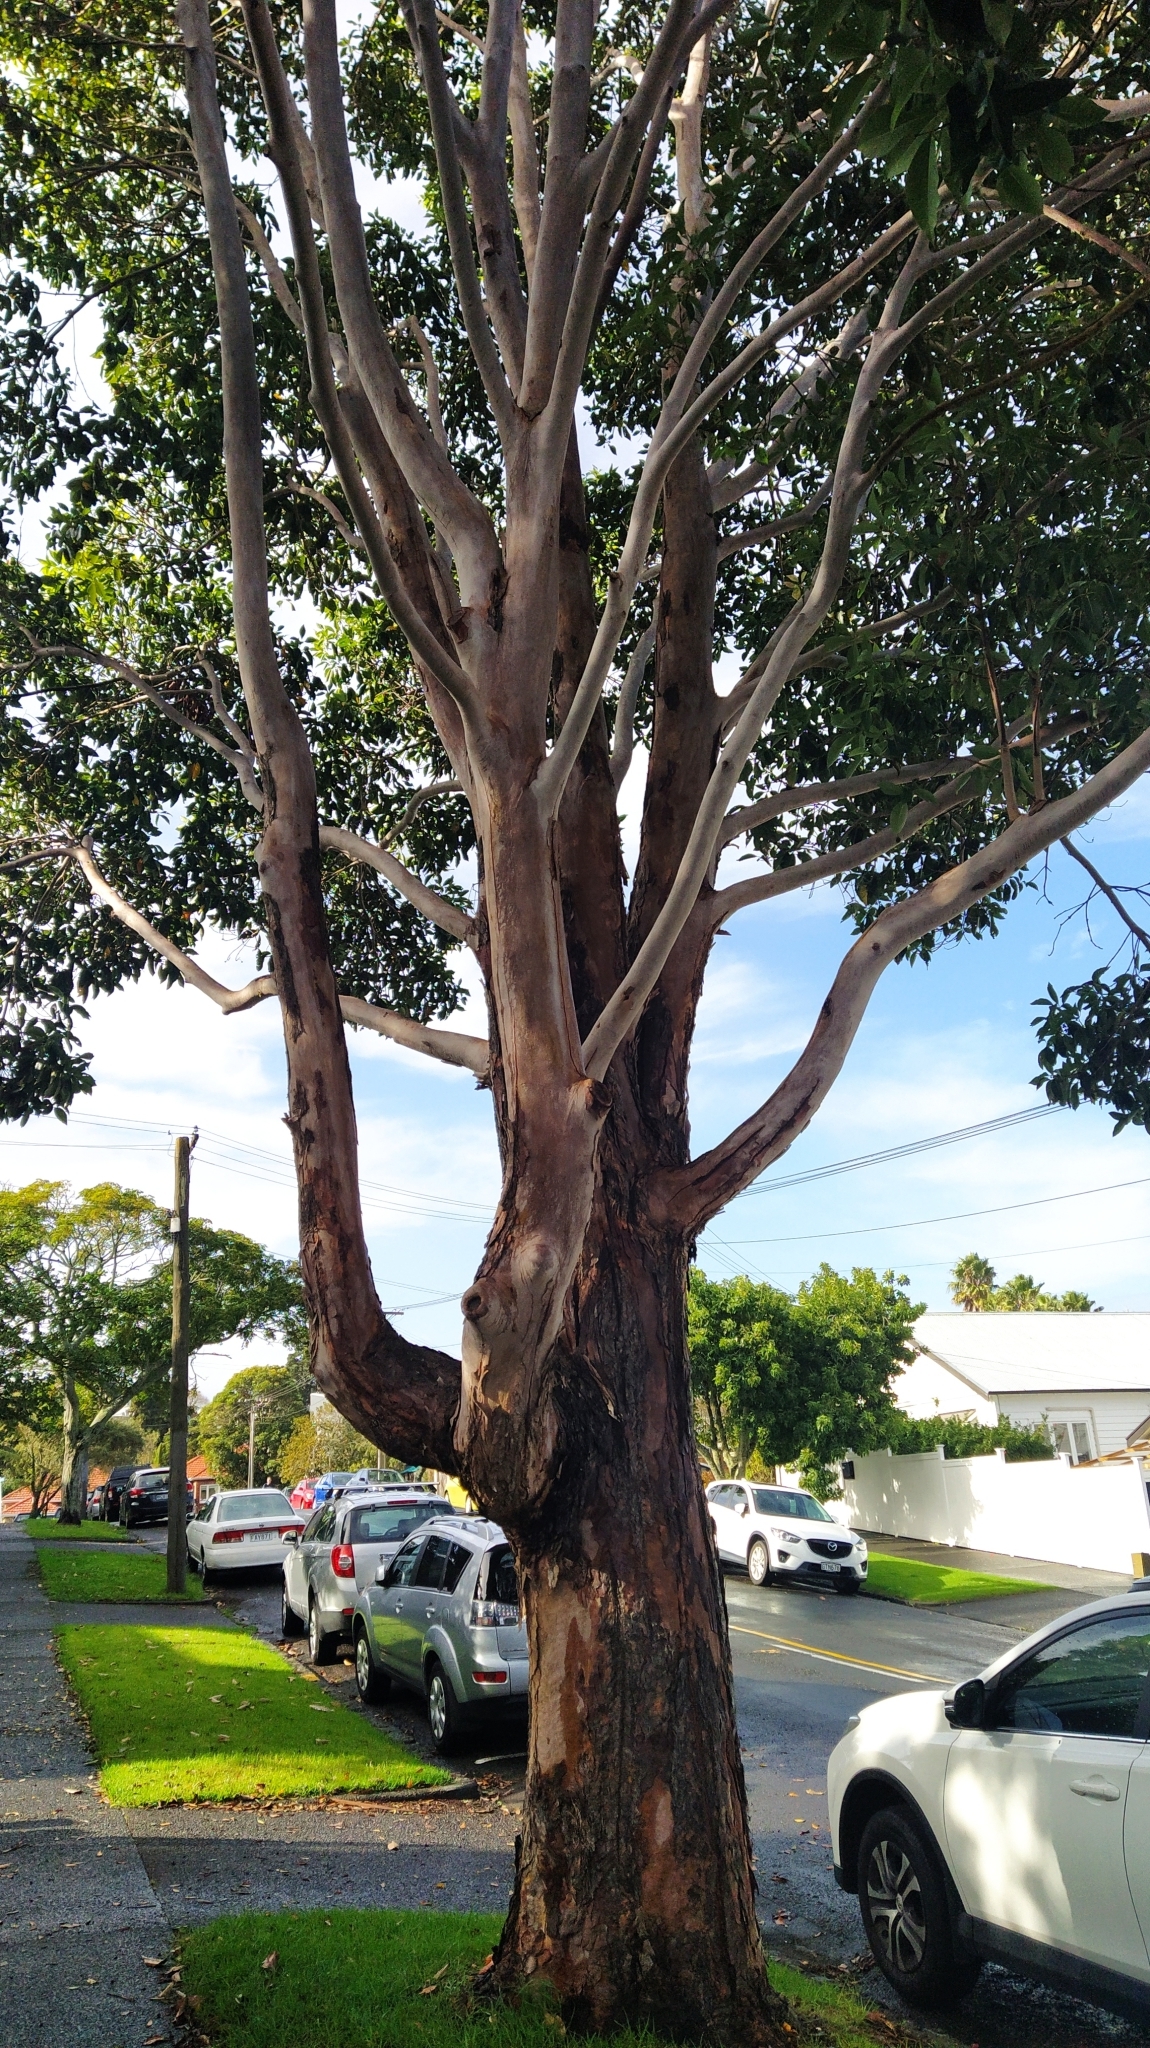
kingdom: Fungi
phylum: Basidiomycota
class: Agaricomycetes
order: Agaricales
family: Hymenogastraceae
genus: Gymnopilus
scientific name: Gymnopilus junonius
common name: Spectacular rustgill
